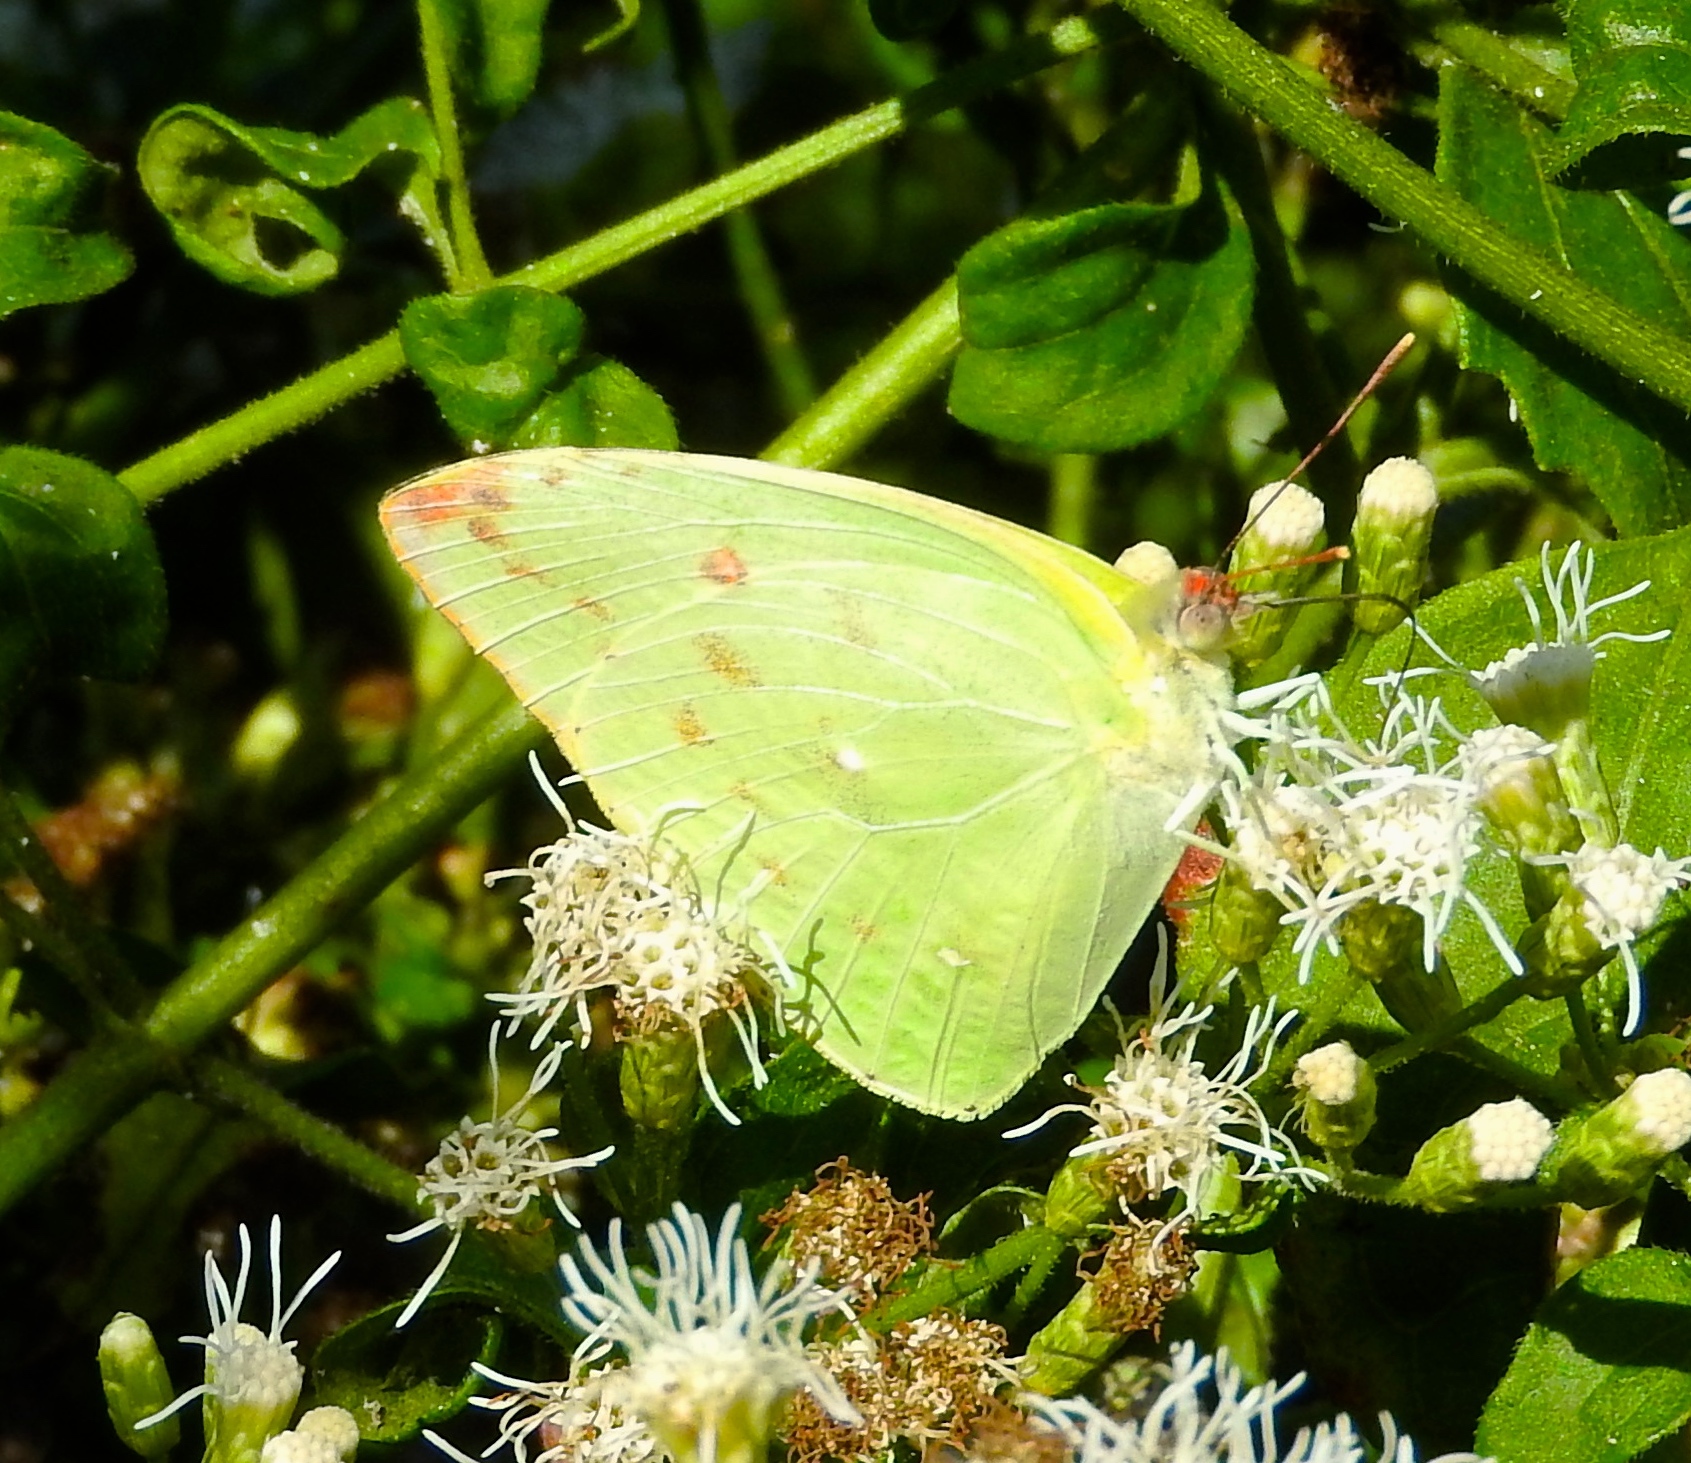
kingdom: Animalia
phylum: Arthropoda
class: Insecta
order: Lepidoptera
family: Pieridae
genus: Aphrissa
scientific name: Aphrissa statira
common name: Statira sulphur
